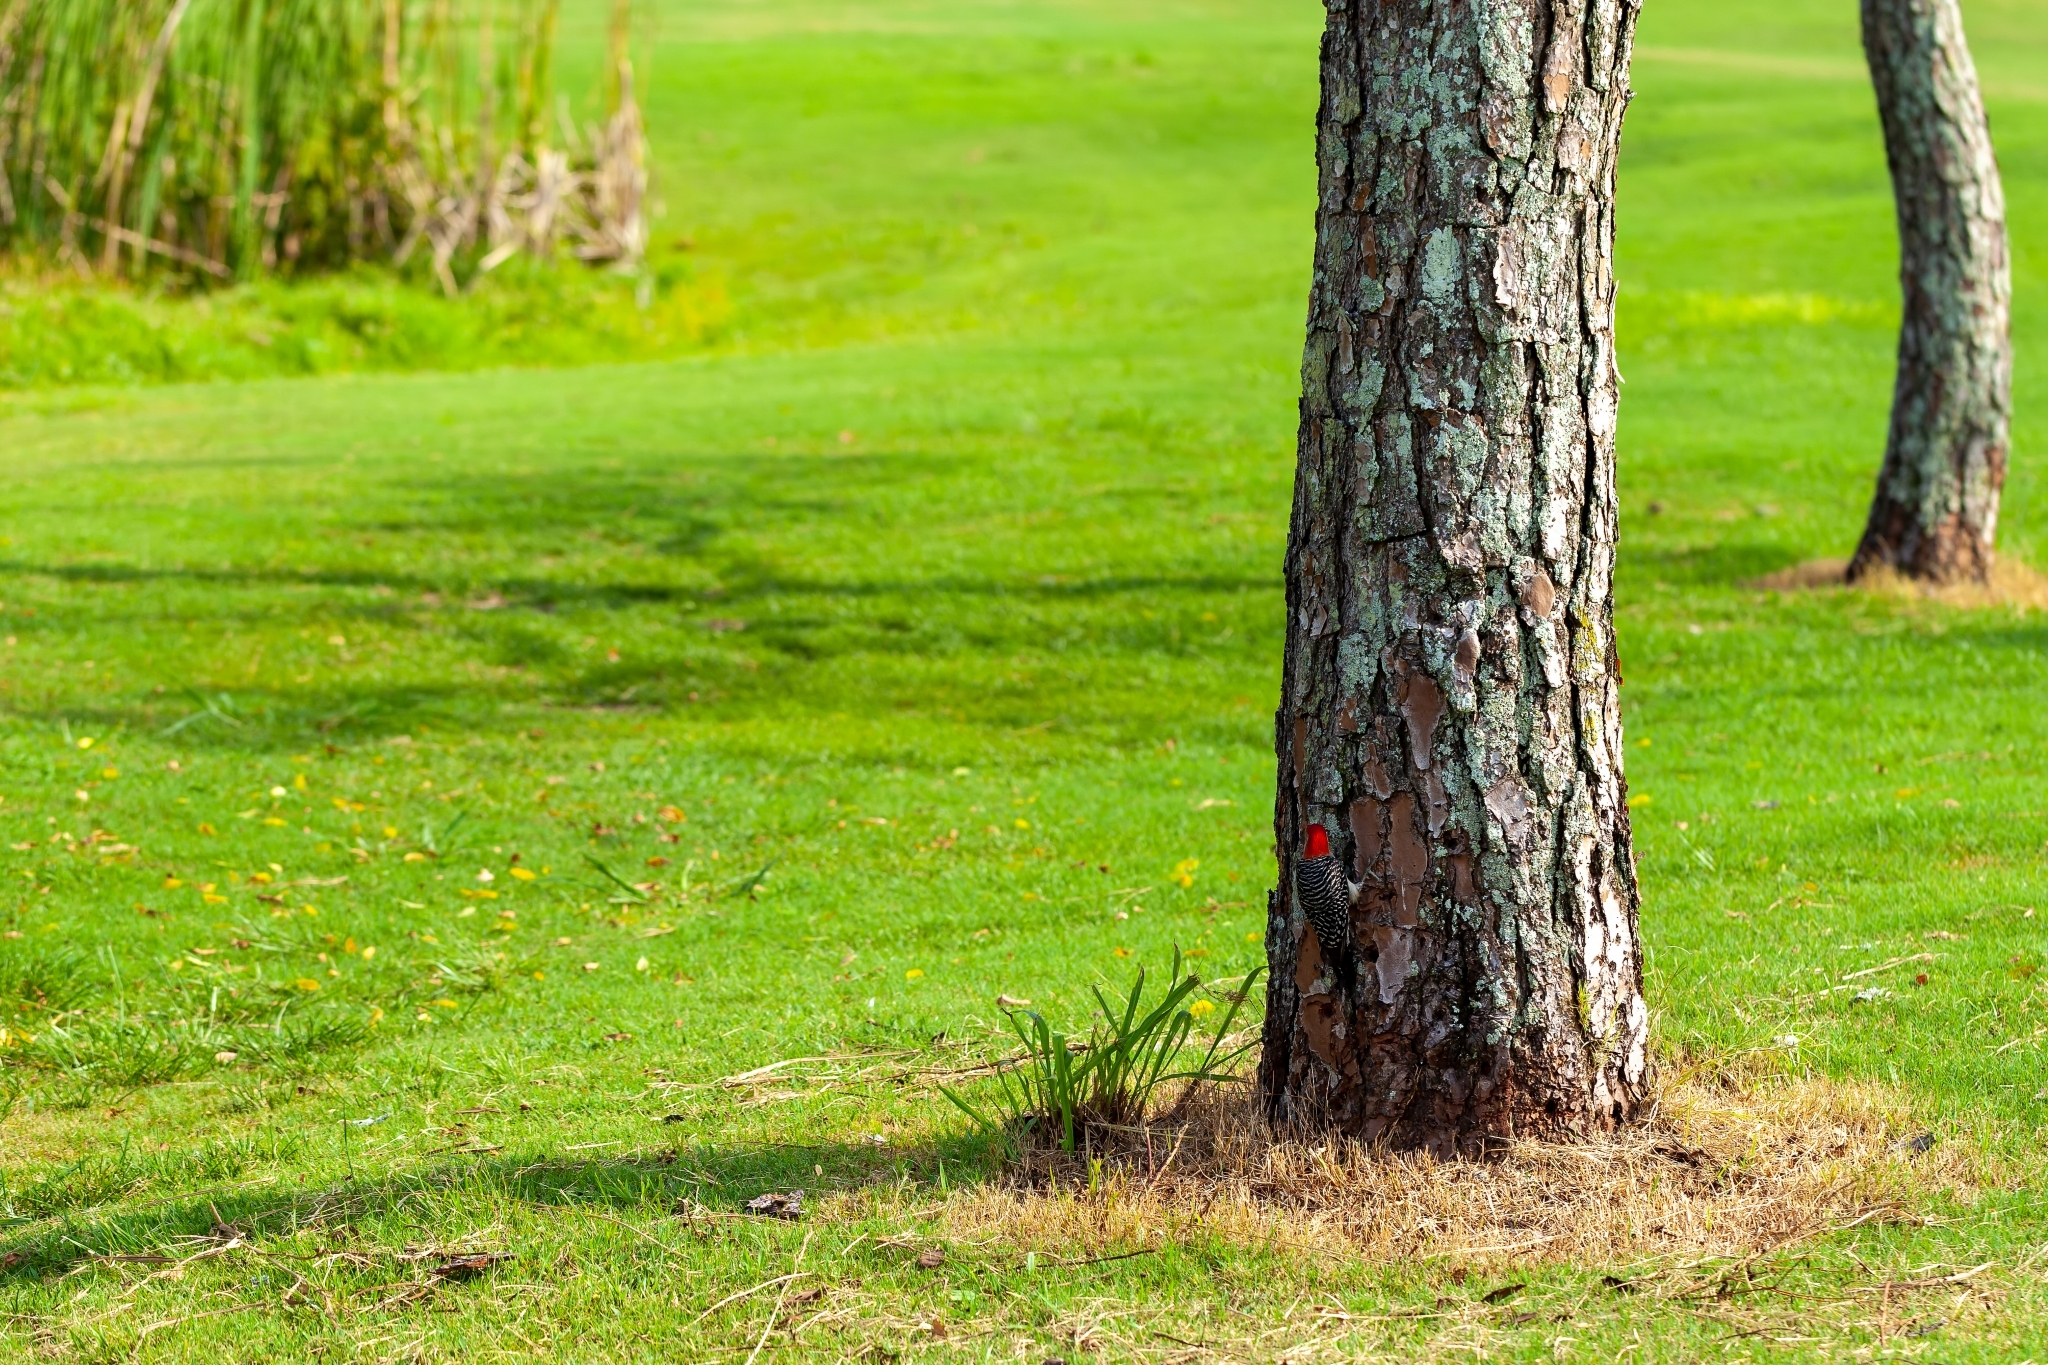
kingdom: Animalia
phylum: Chordata
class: Aves
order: Piciformes
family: Picidae
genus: Melanerpes
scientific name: Melanerpes carolinus
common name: Red-bellied woodpecker
